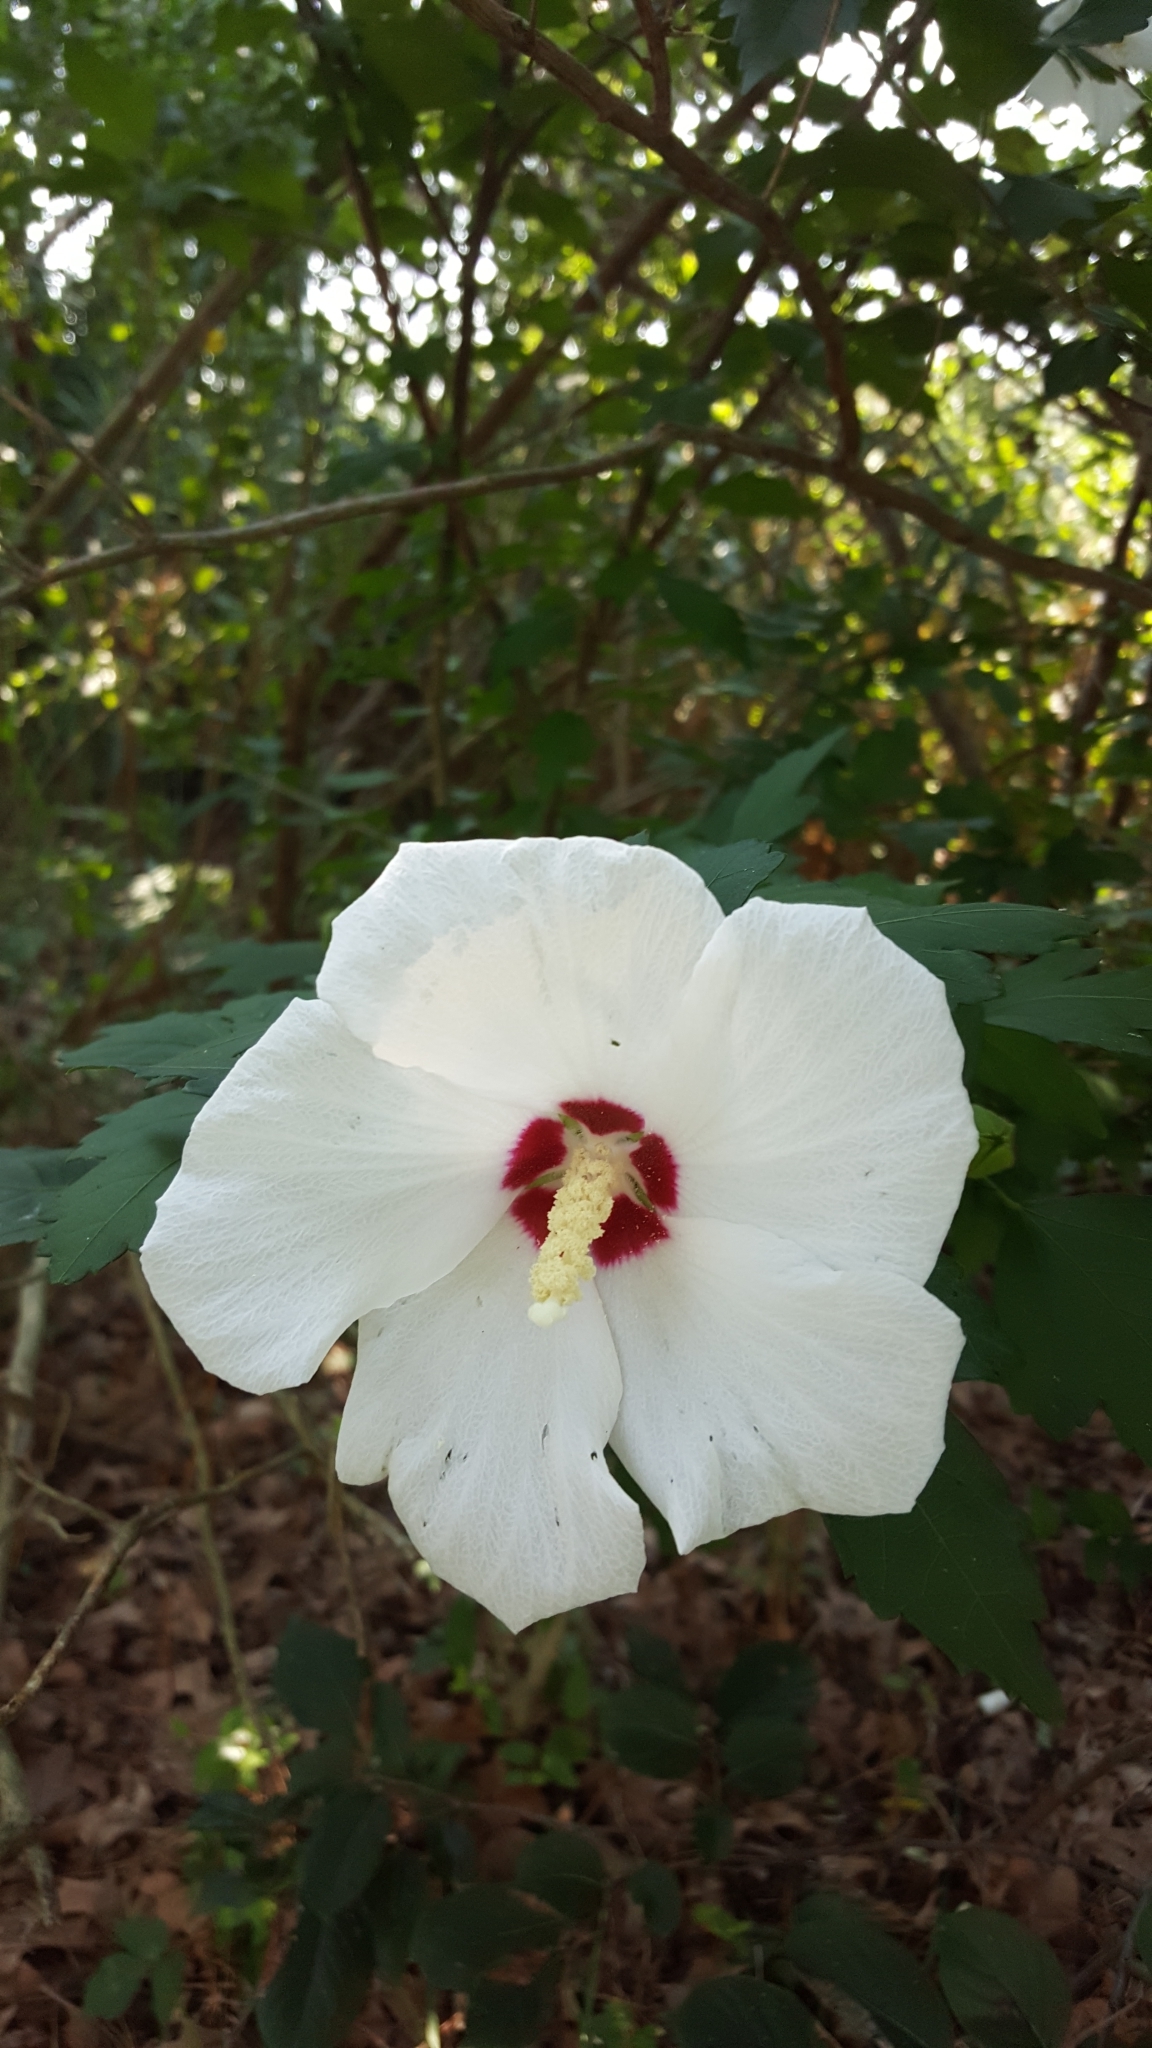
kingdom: Plantae
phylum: Tracheophyta
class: Magnoliopsida
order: Malvales
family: Malvaceae
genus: Hibiscus
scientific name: Hibiscus syriacus
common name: Syrian ketmia
